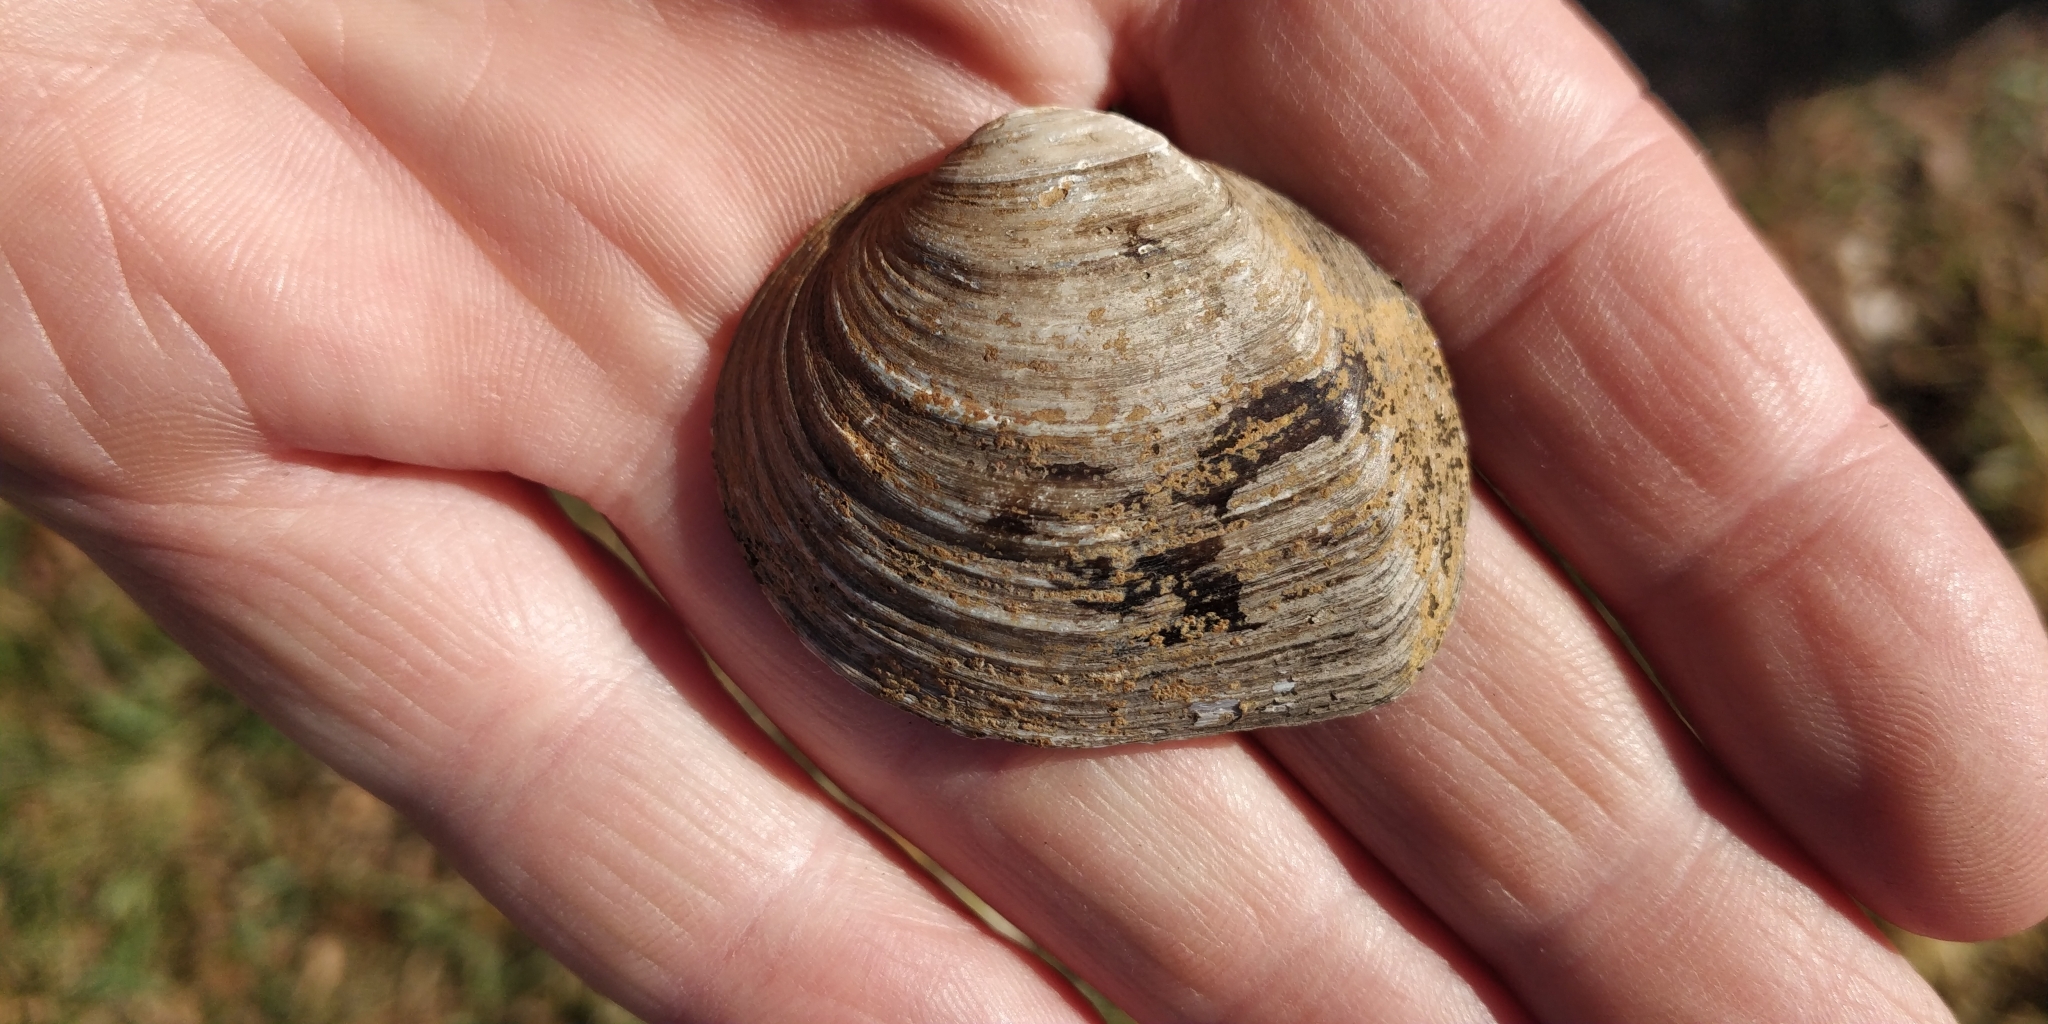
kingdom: Animalia
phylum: Mollusca
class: Bivalvia
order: Unionida
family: Unionidae
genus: Fusconaia
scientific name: Fusconaia flava
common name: Wabash pigtoe
